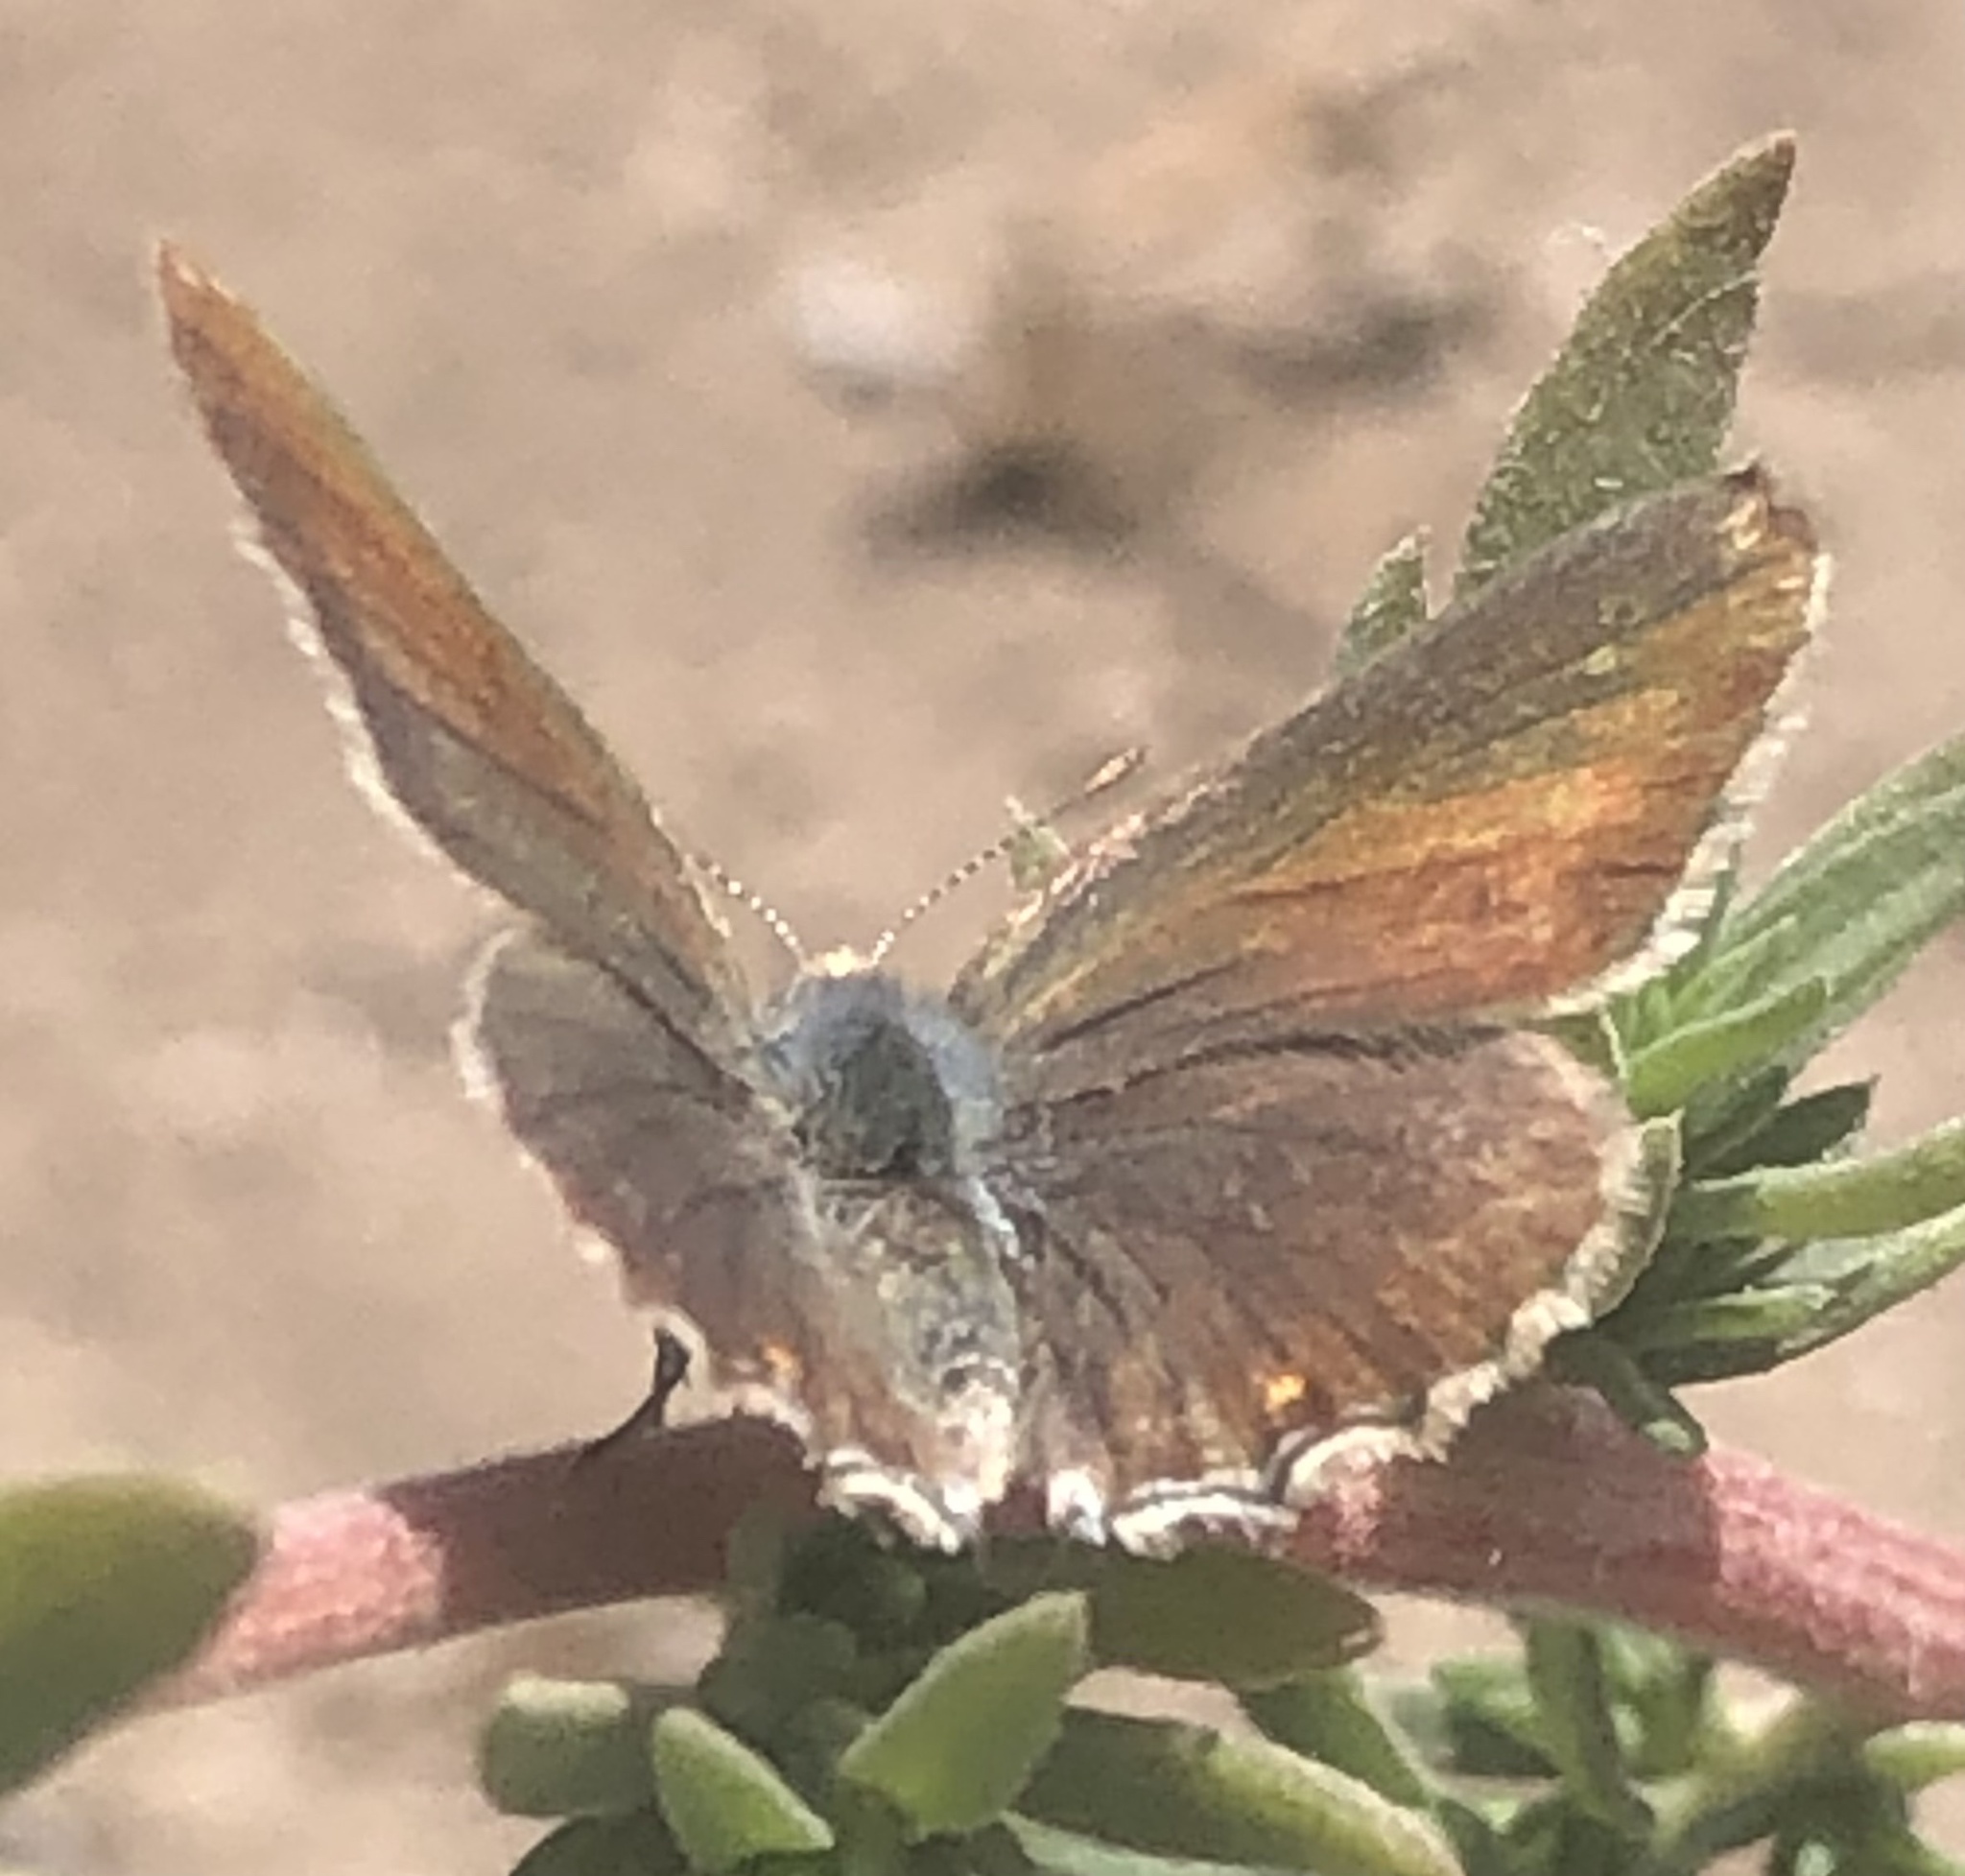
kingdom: Animalia
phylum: Arthropoda
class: Insecta
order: Lepidoptera
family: Lycaenidae
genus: Strymon
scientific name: Strymon eurytulus
